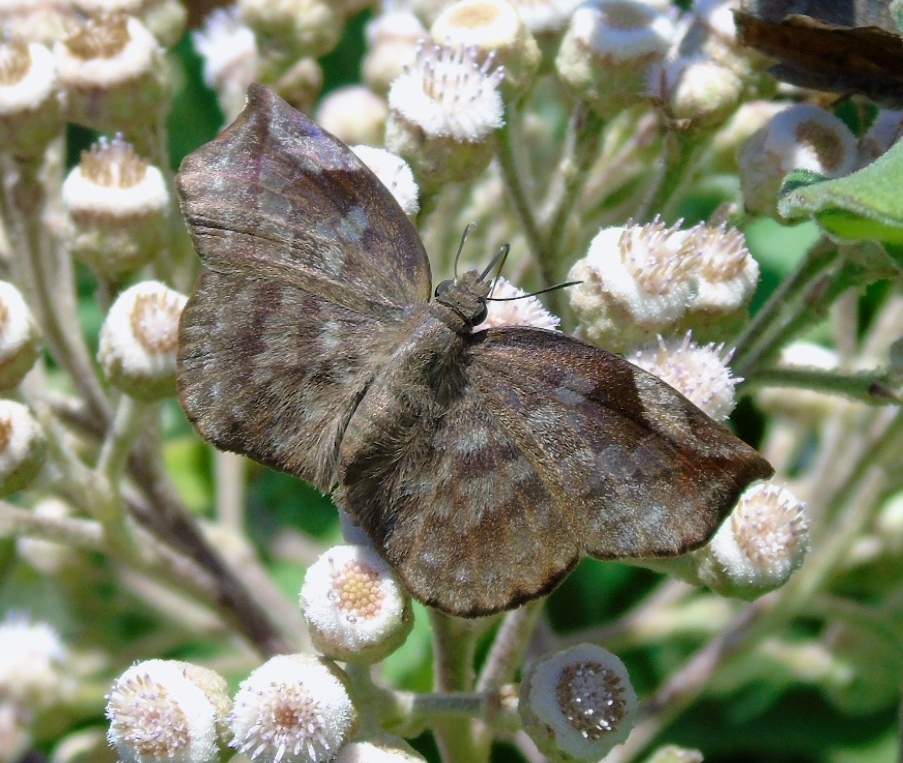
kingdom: Animalia
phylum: Arthropoda
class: Insecta
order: Lepidoptera
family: Hesperiidae
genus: Achlyodes
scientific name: Achlyodes thraso
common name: Sickle-winged skipper
